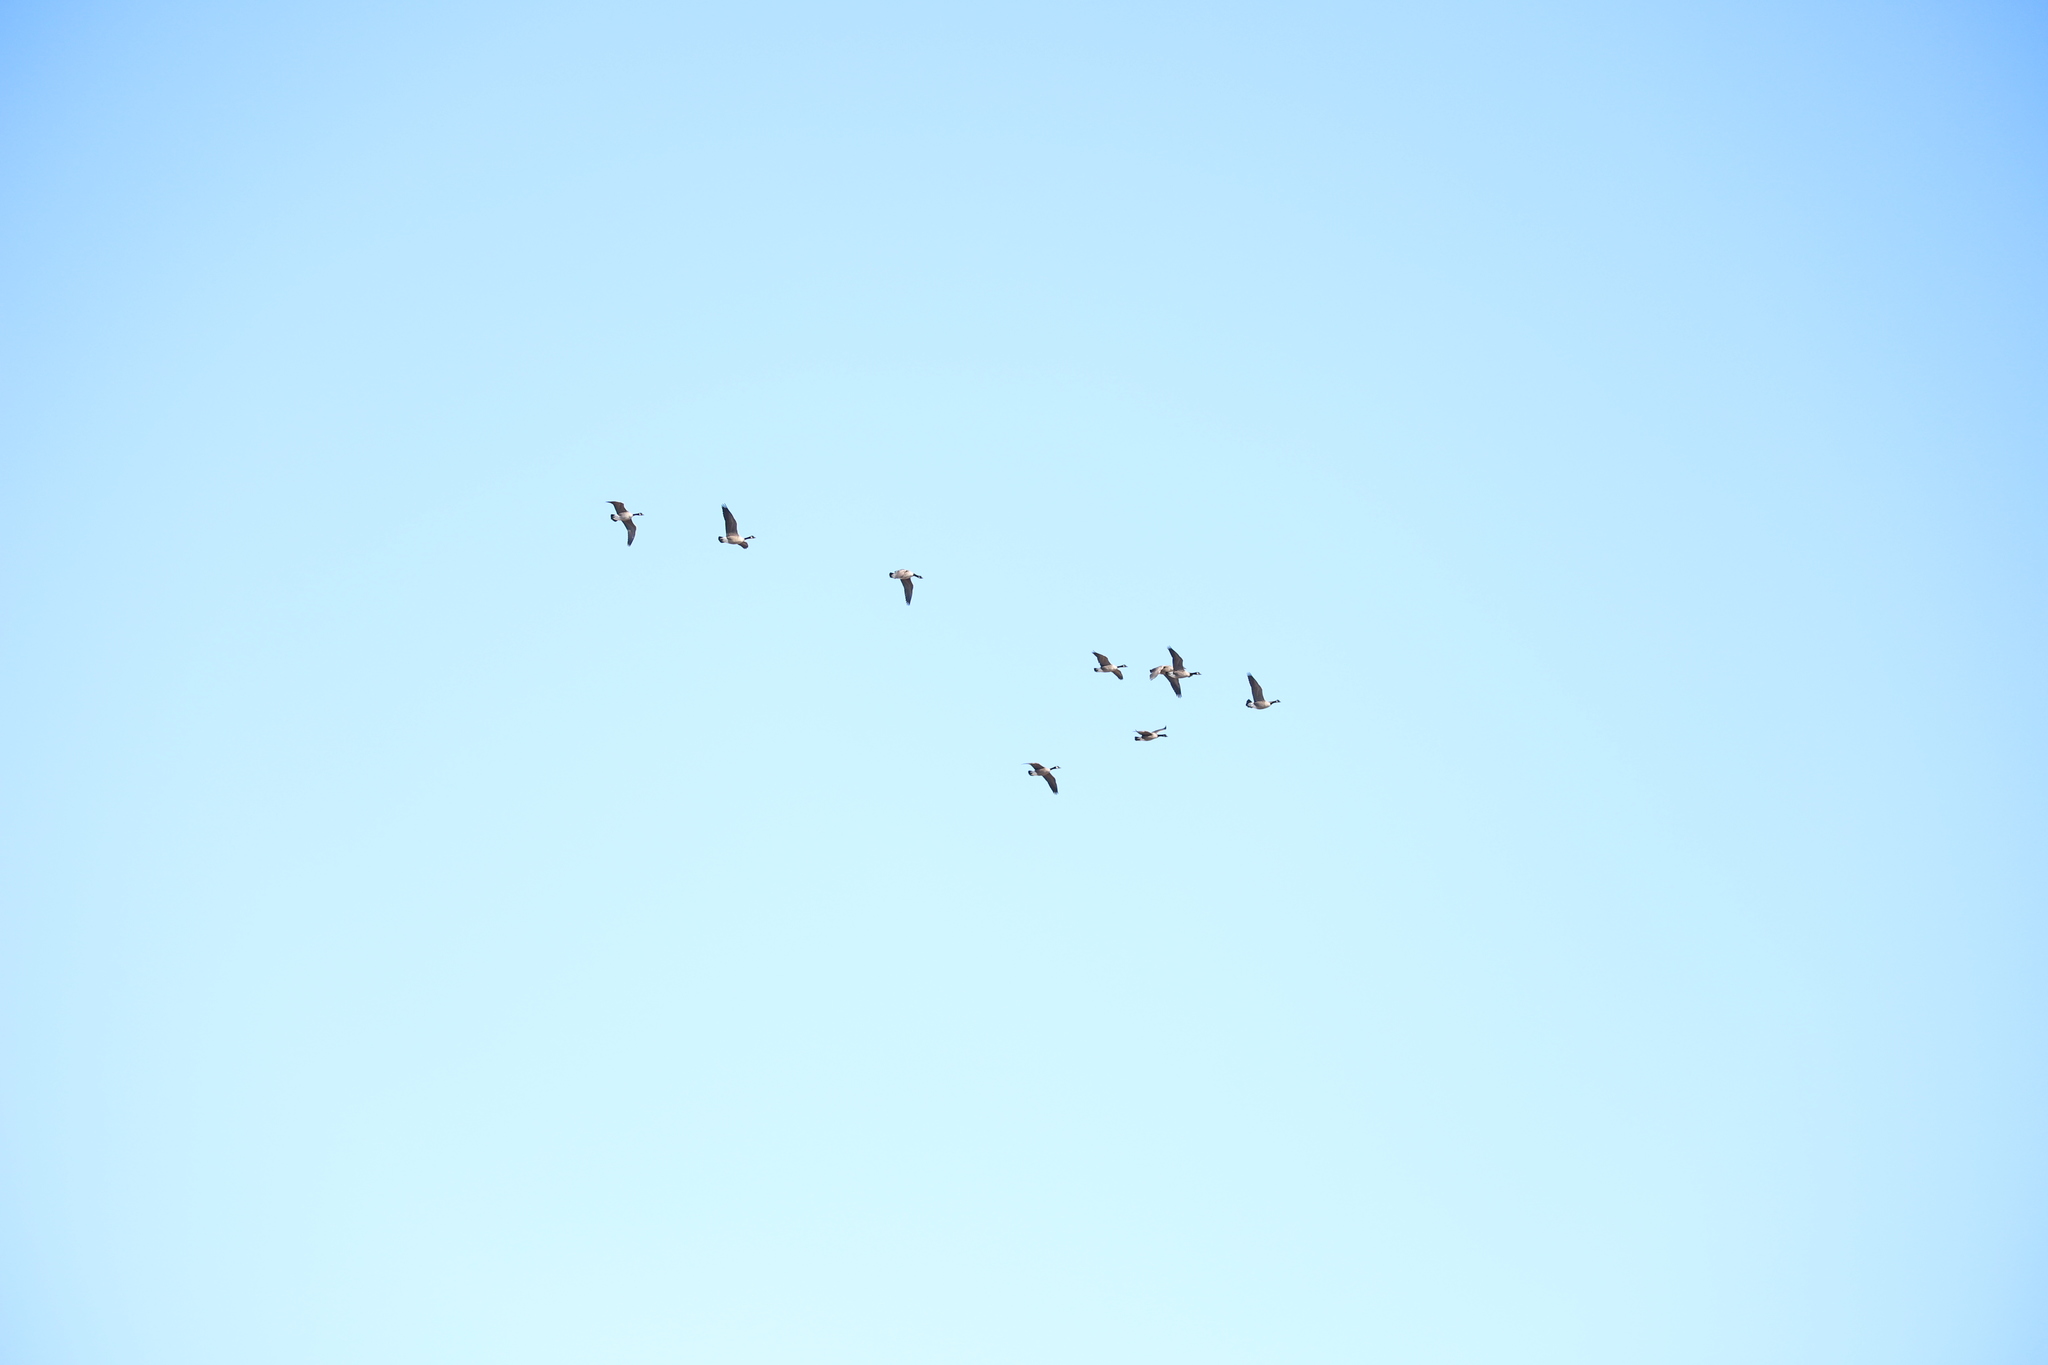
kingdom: Animalia
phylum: Chordata
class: Aves
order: Anseriformes
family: Anatidae
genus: Branta
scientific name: Branta canadensis
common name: Canada goose
